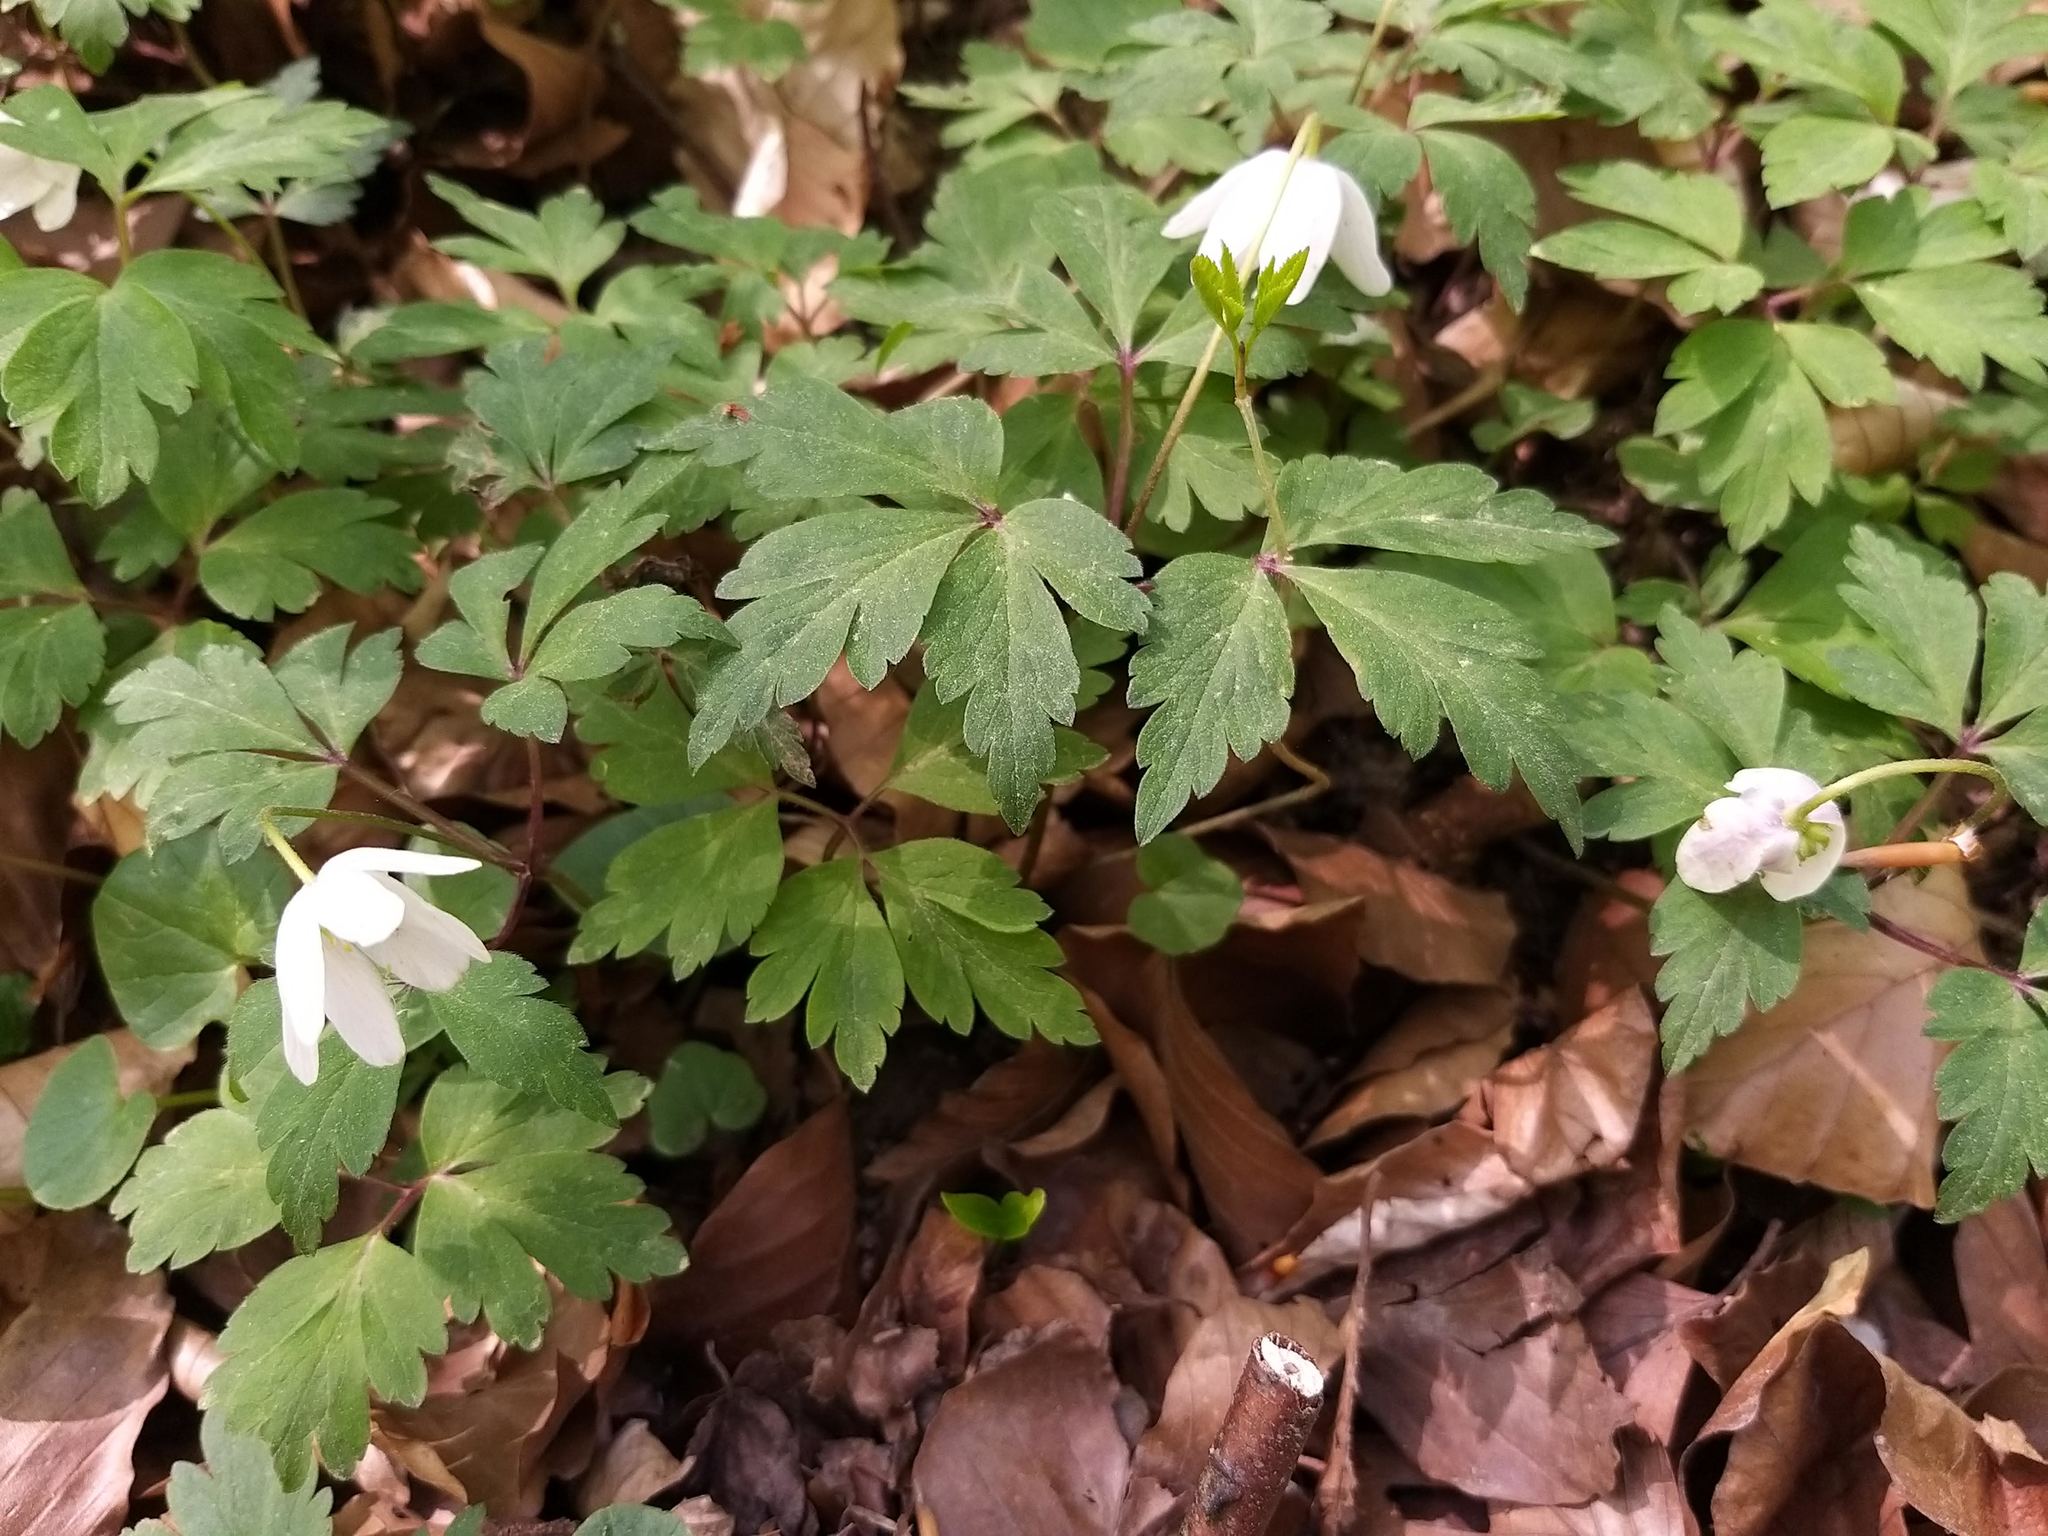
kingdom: Plantae
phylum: Tracheophyta
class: Magnoliopsida
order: Ranunculales
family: Ranunculaceae
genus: Anemone
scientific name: Anemone nemorosa
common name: Wood anemone
